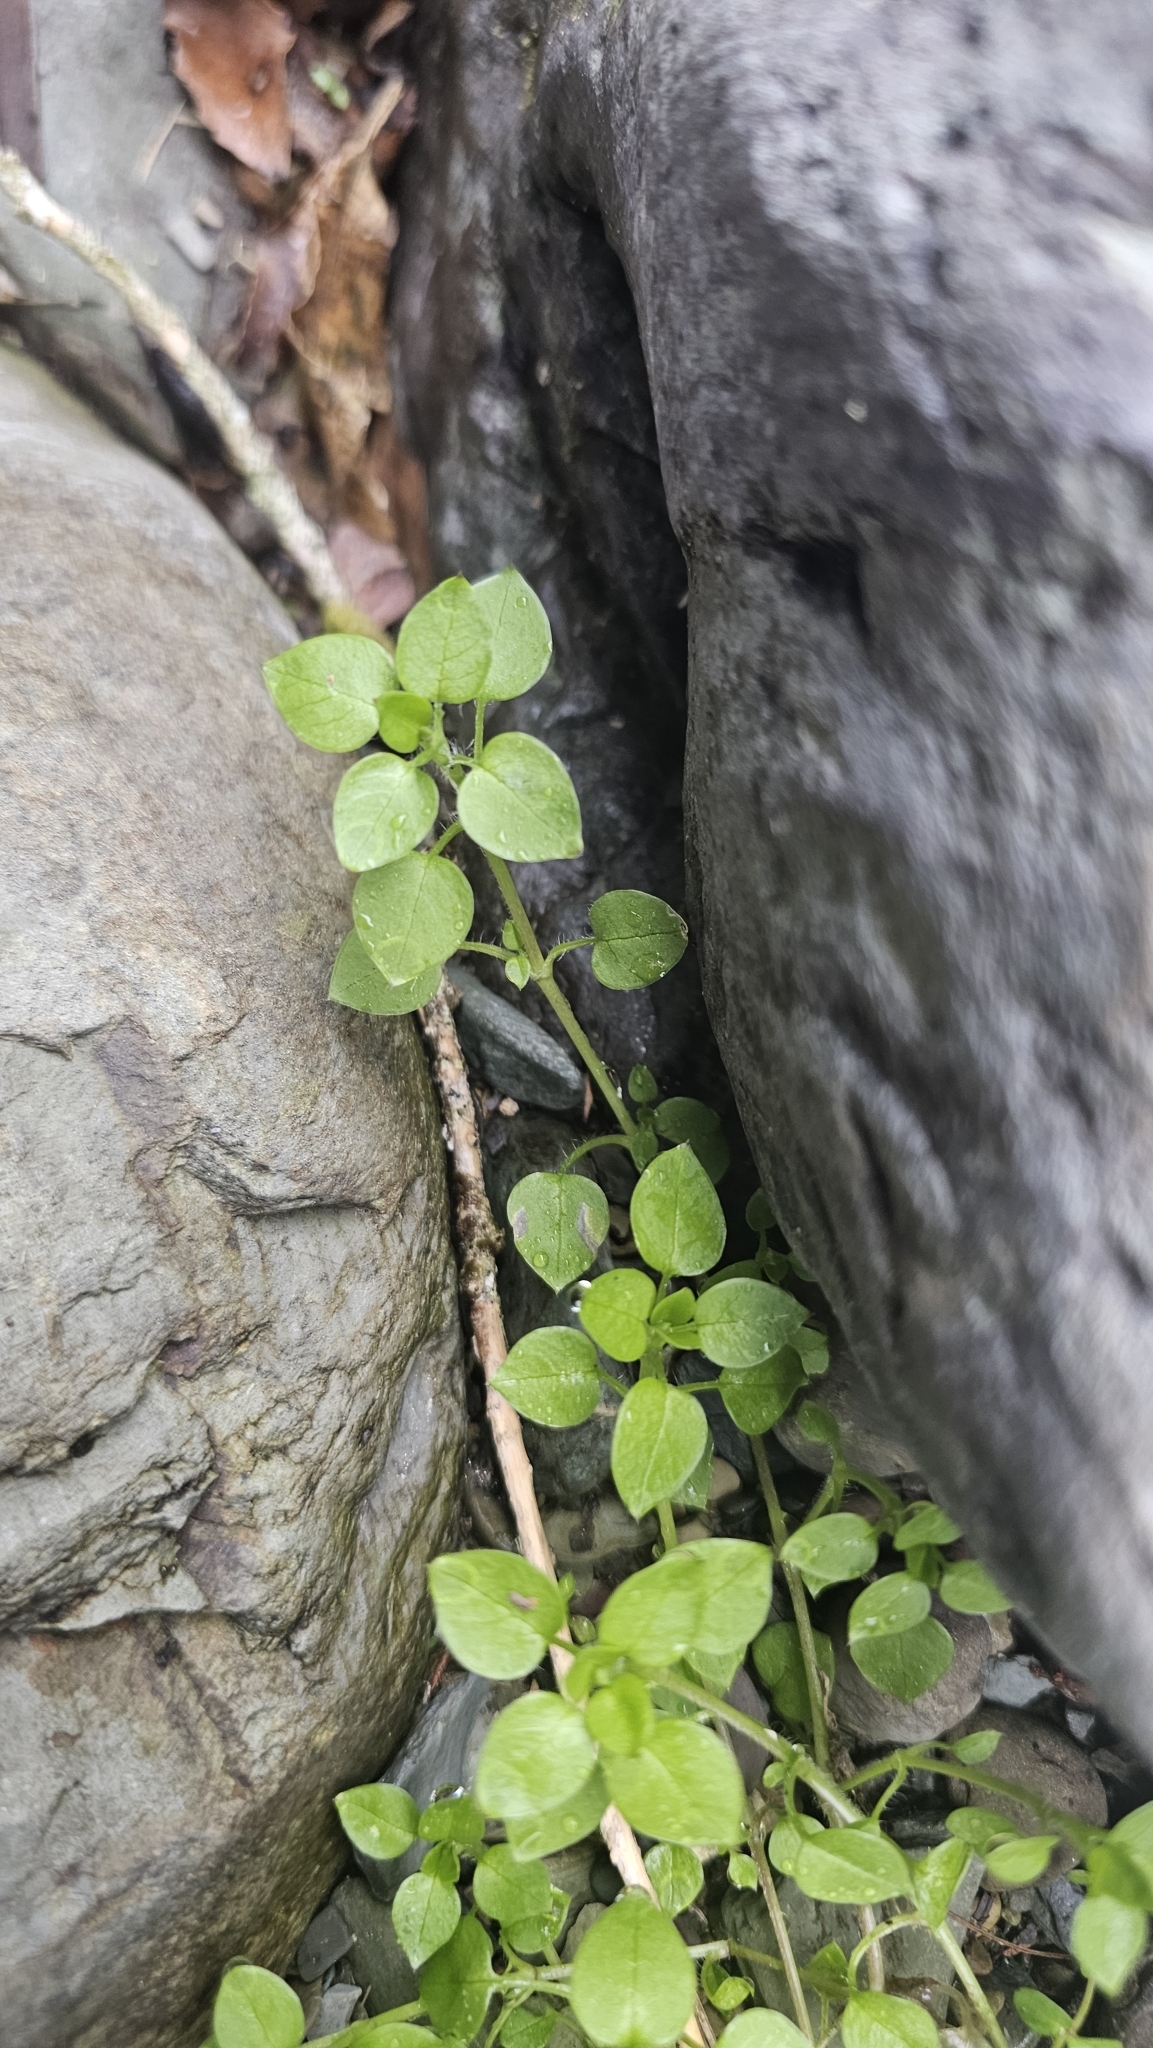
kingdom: Plantae
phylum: Tracheophyta
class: Magnoliopsida
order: Caryophyllales
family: Caryophyllaceae
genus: Stellaria
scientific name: Stellaria media
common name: Common chickweed
